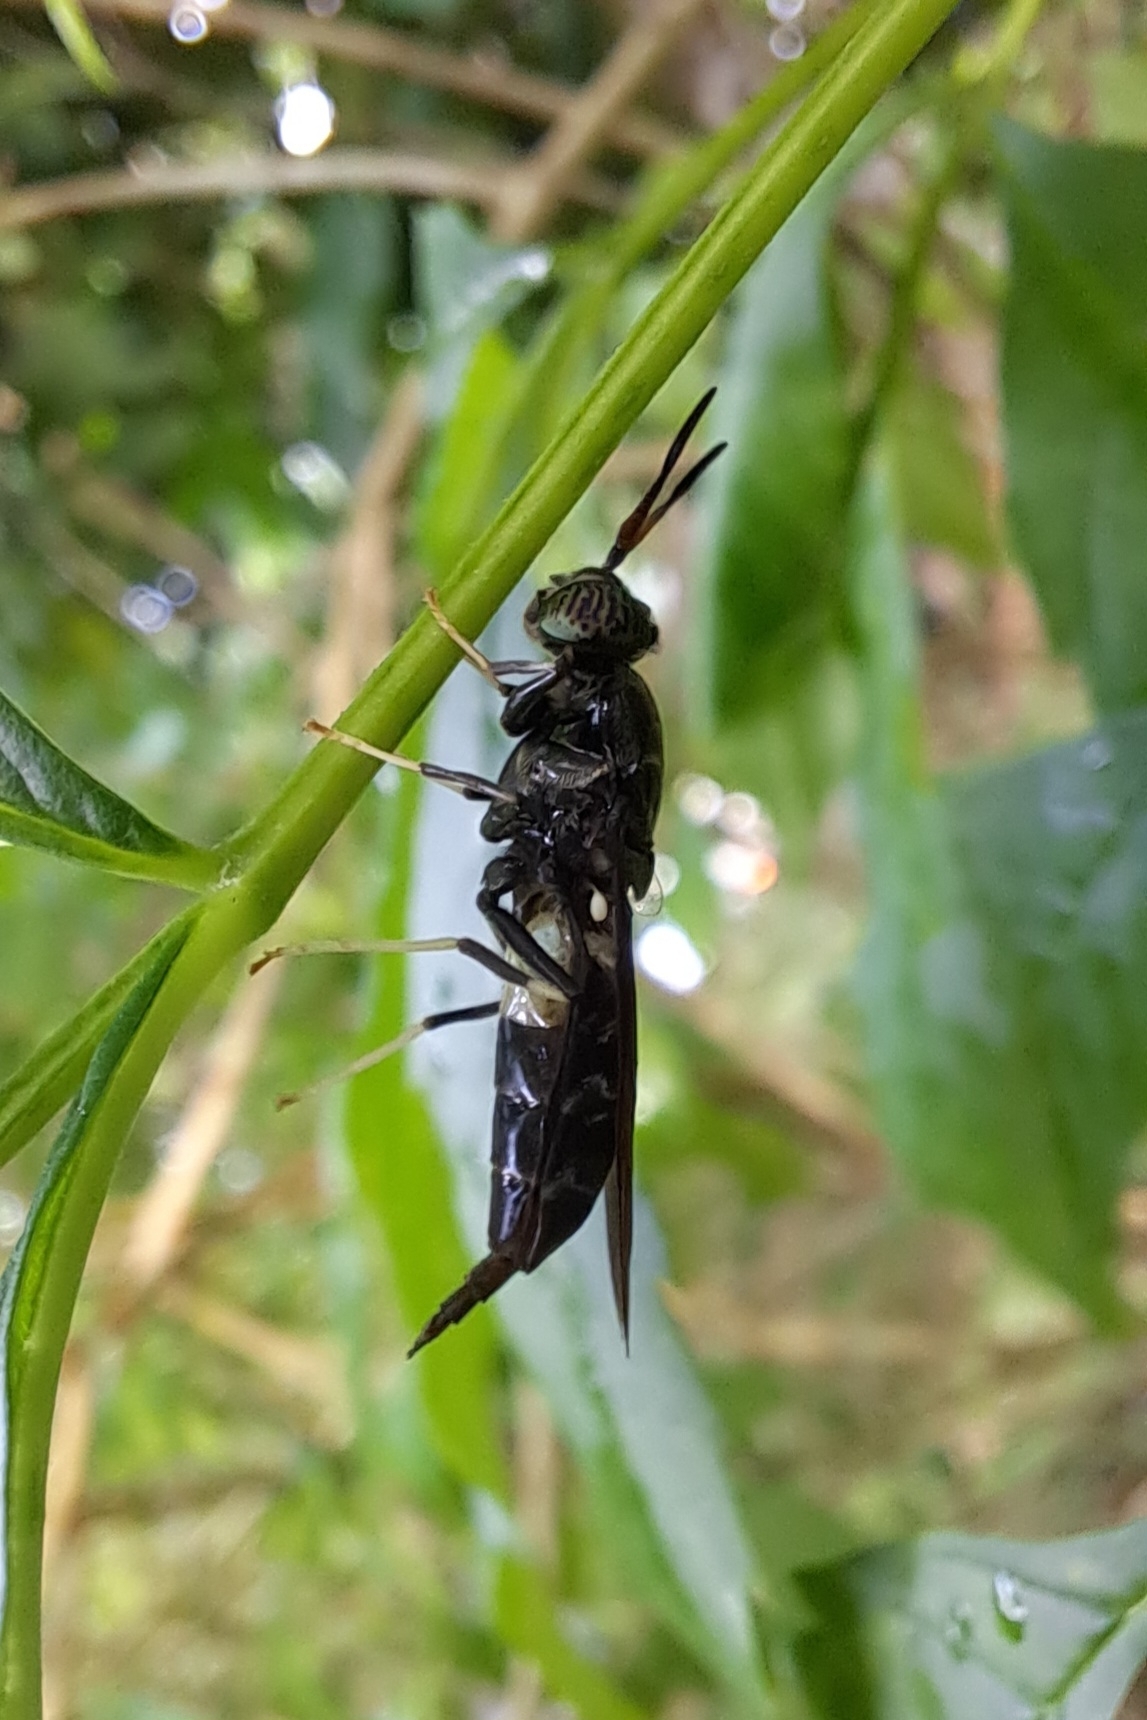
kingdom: Animalia
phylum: Arthropoda
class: Insecta
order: Diptera
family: Stratiomyidae
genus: Hermetia
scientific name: Hermetia illucens
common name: Black soldier fly
